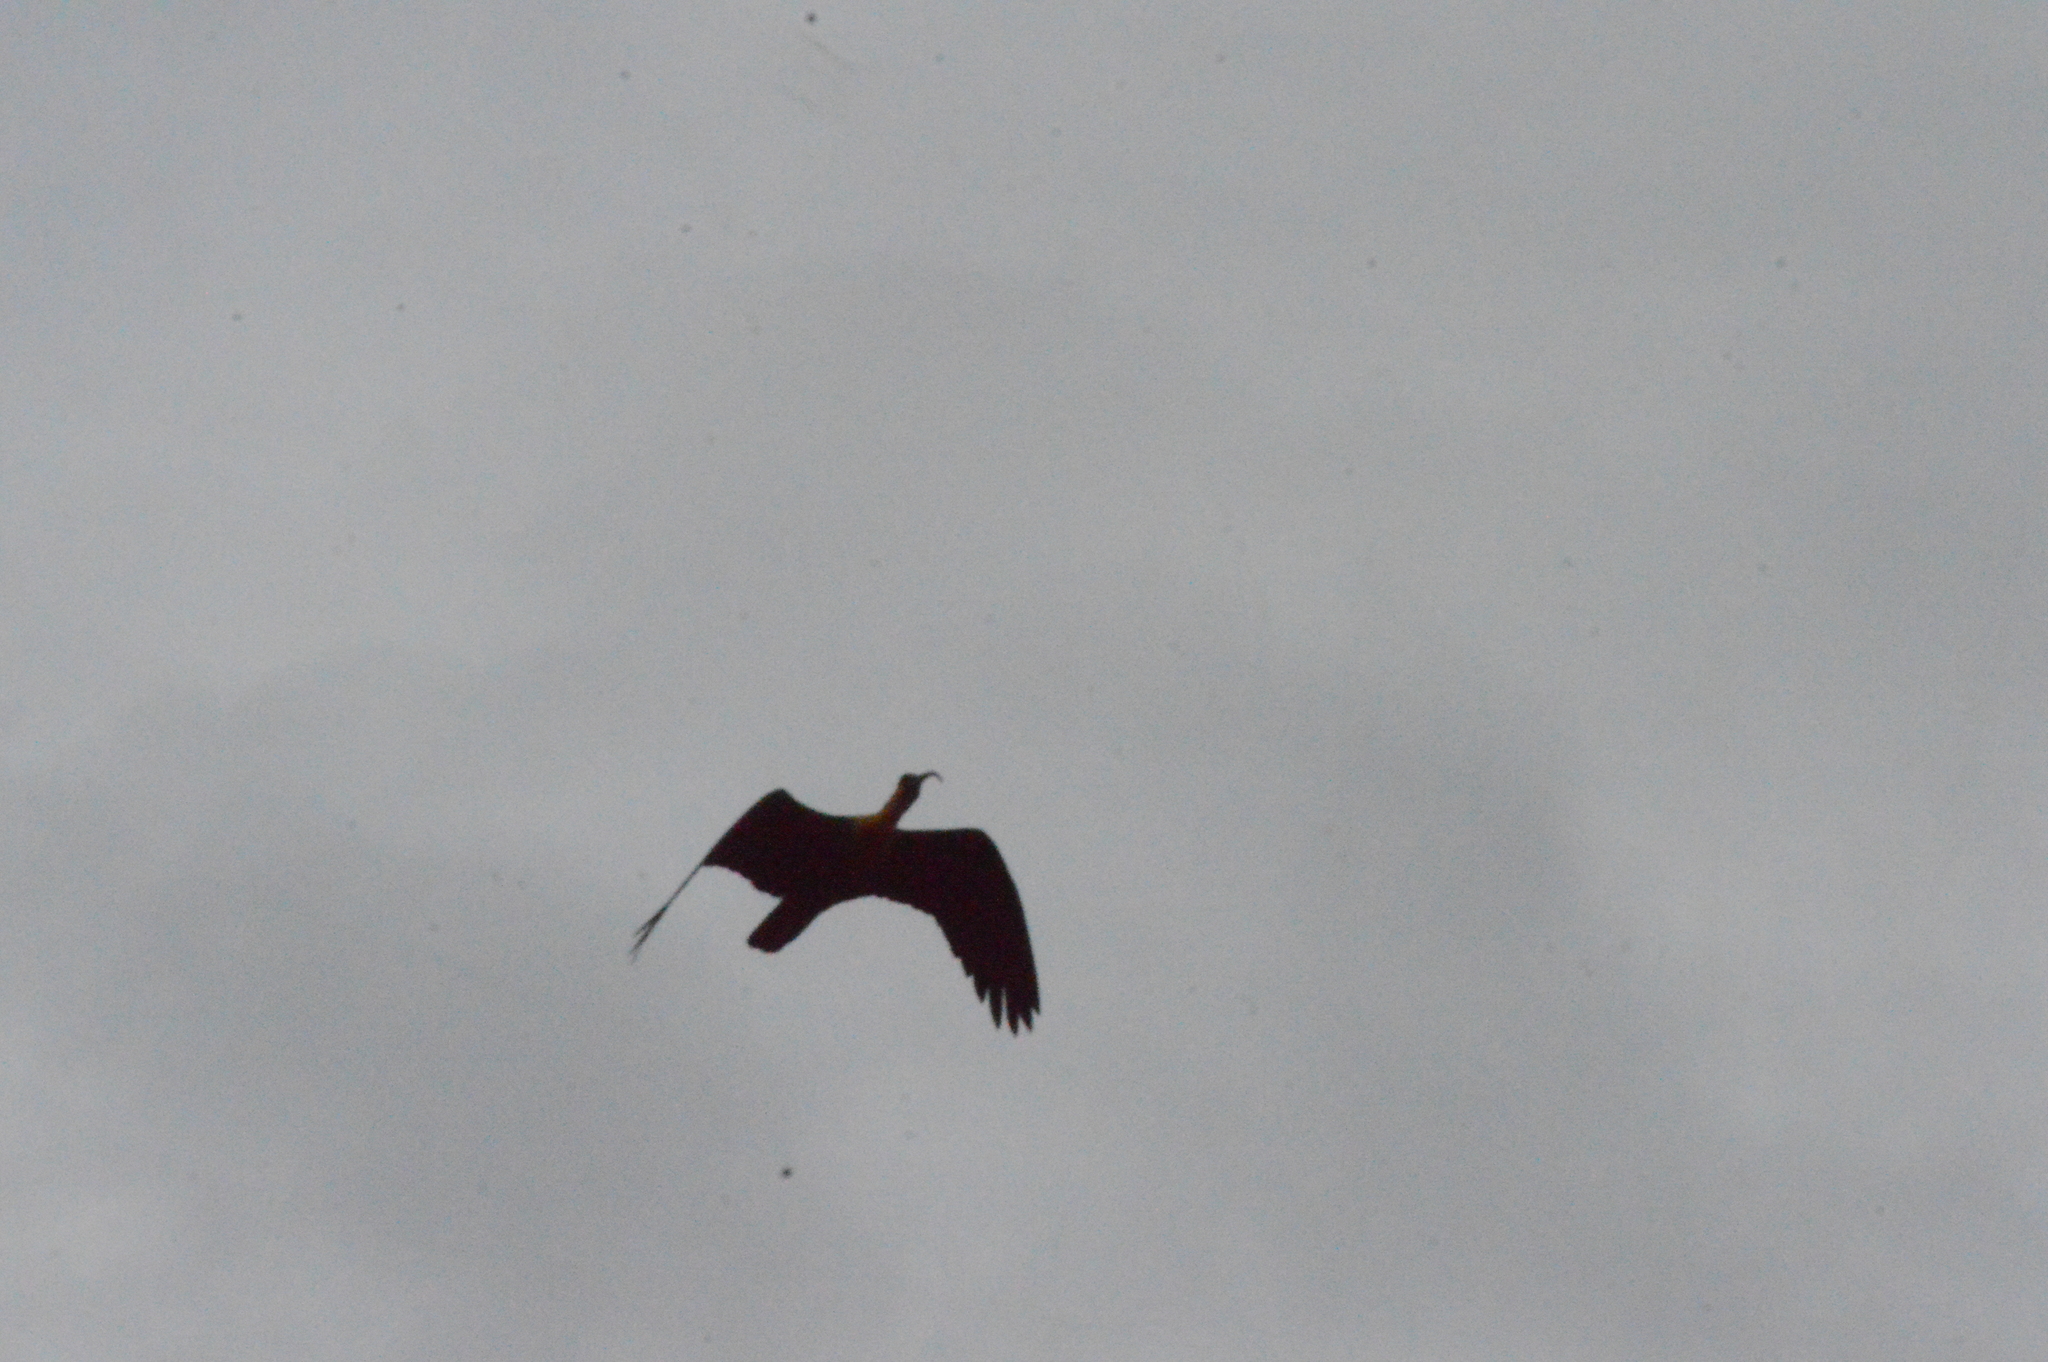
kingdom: Animalia
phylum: Chordata
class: Aves
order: Pelecaniformes
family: Threskiornithidae
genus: Theristicus
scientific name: Theristicus caudatus
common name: Buff-necked ibis
